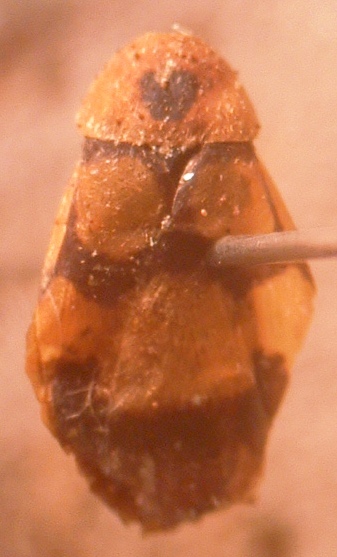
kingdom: Animalia
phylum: Arthropoda
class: Insecta
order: Blattodea
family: Corydiidae
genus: Holocompsa
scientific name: Holocompsa zapoteca
